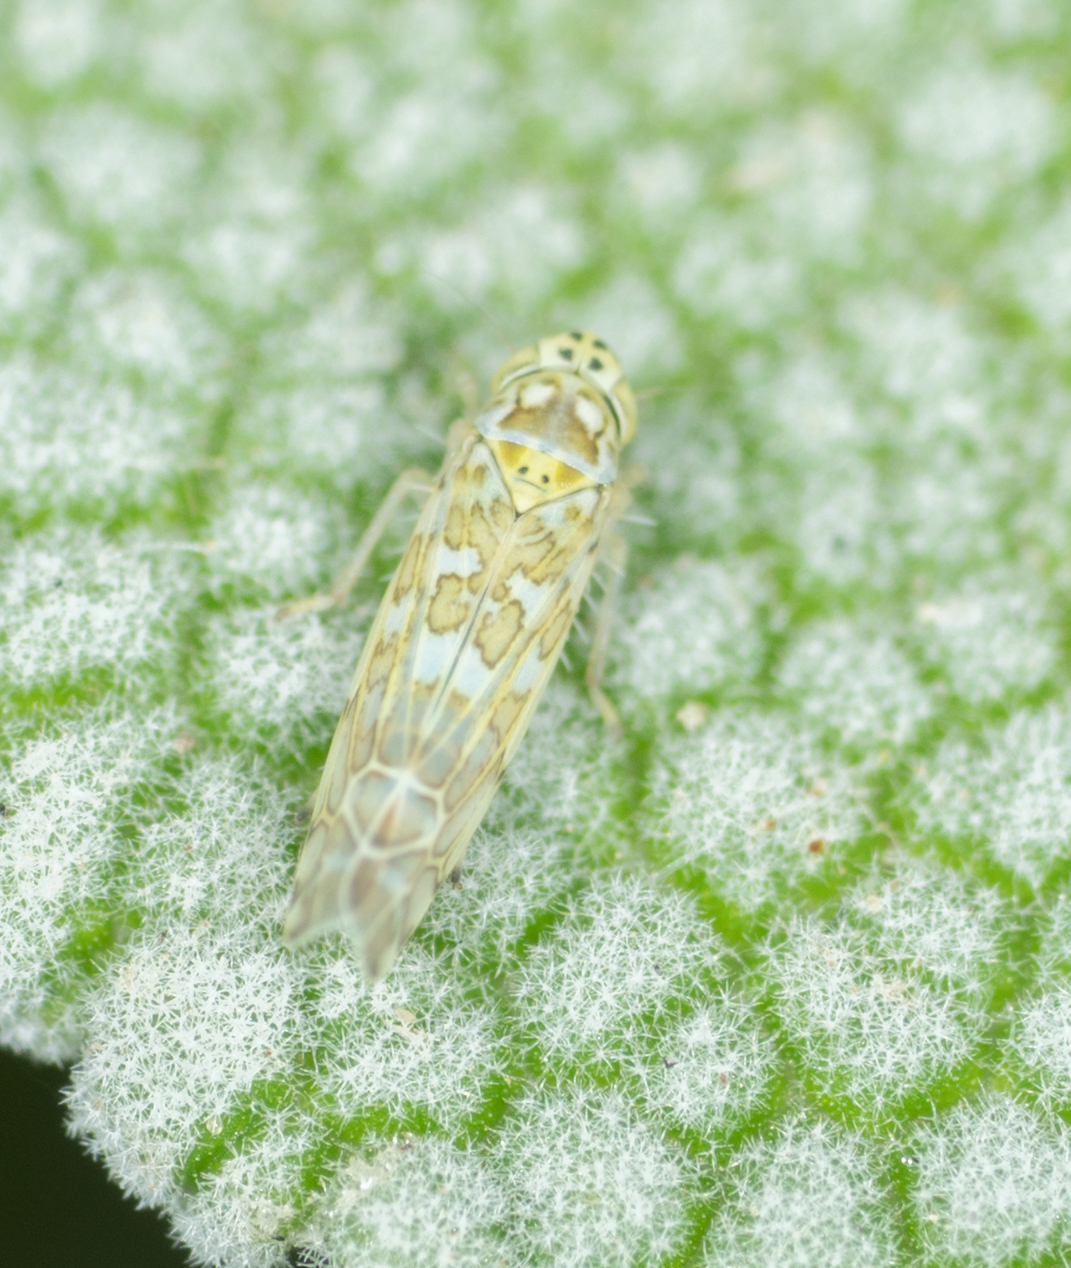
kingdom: Animalia
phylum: Arthropoda
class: Insecta
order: Hemiptera
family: Cicadellidae
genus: Eupteryx
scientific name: Eupteryx decemnotata
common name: Ligurian leafhopper
